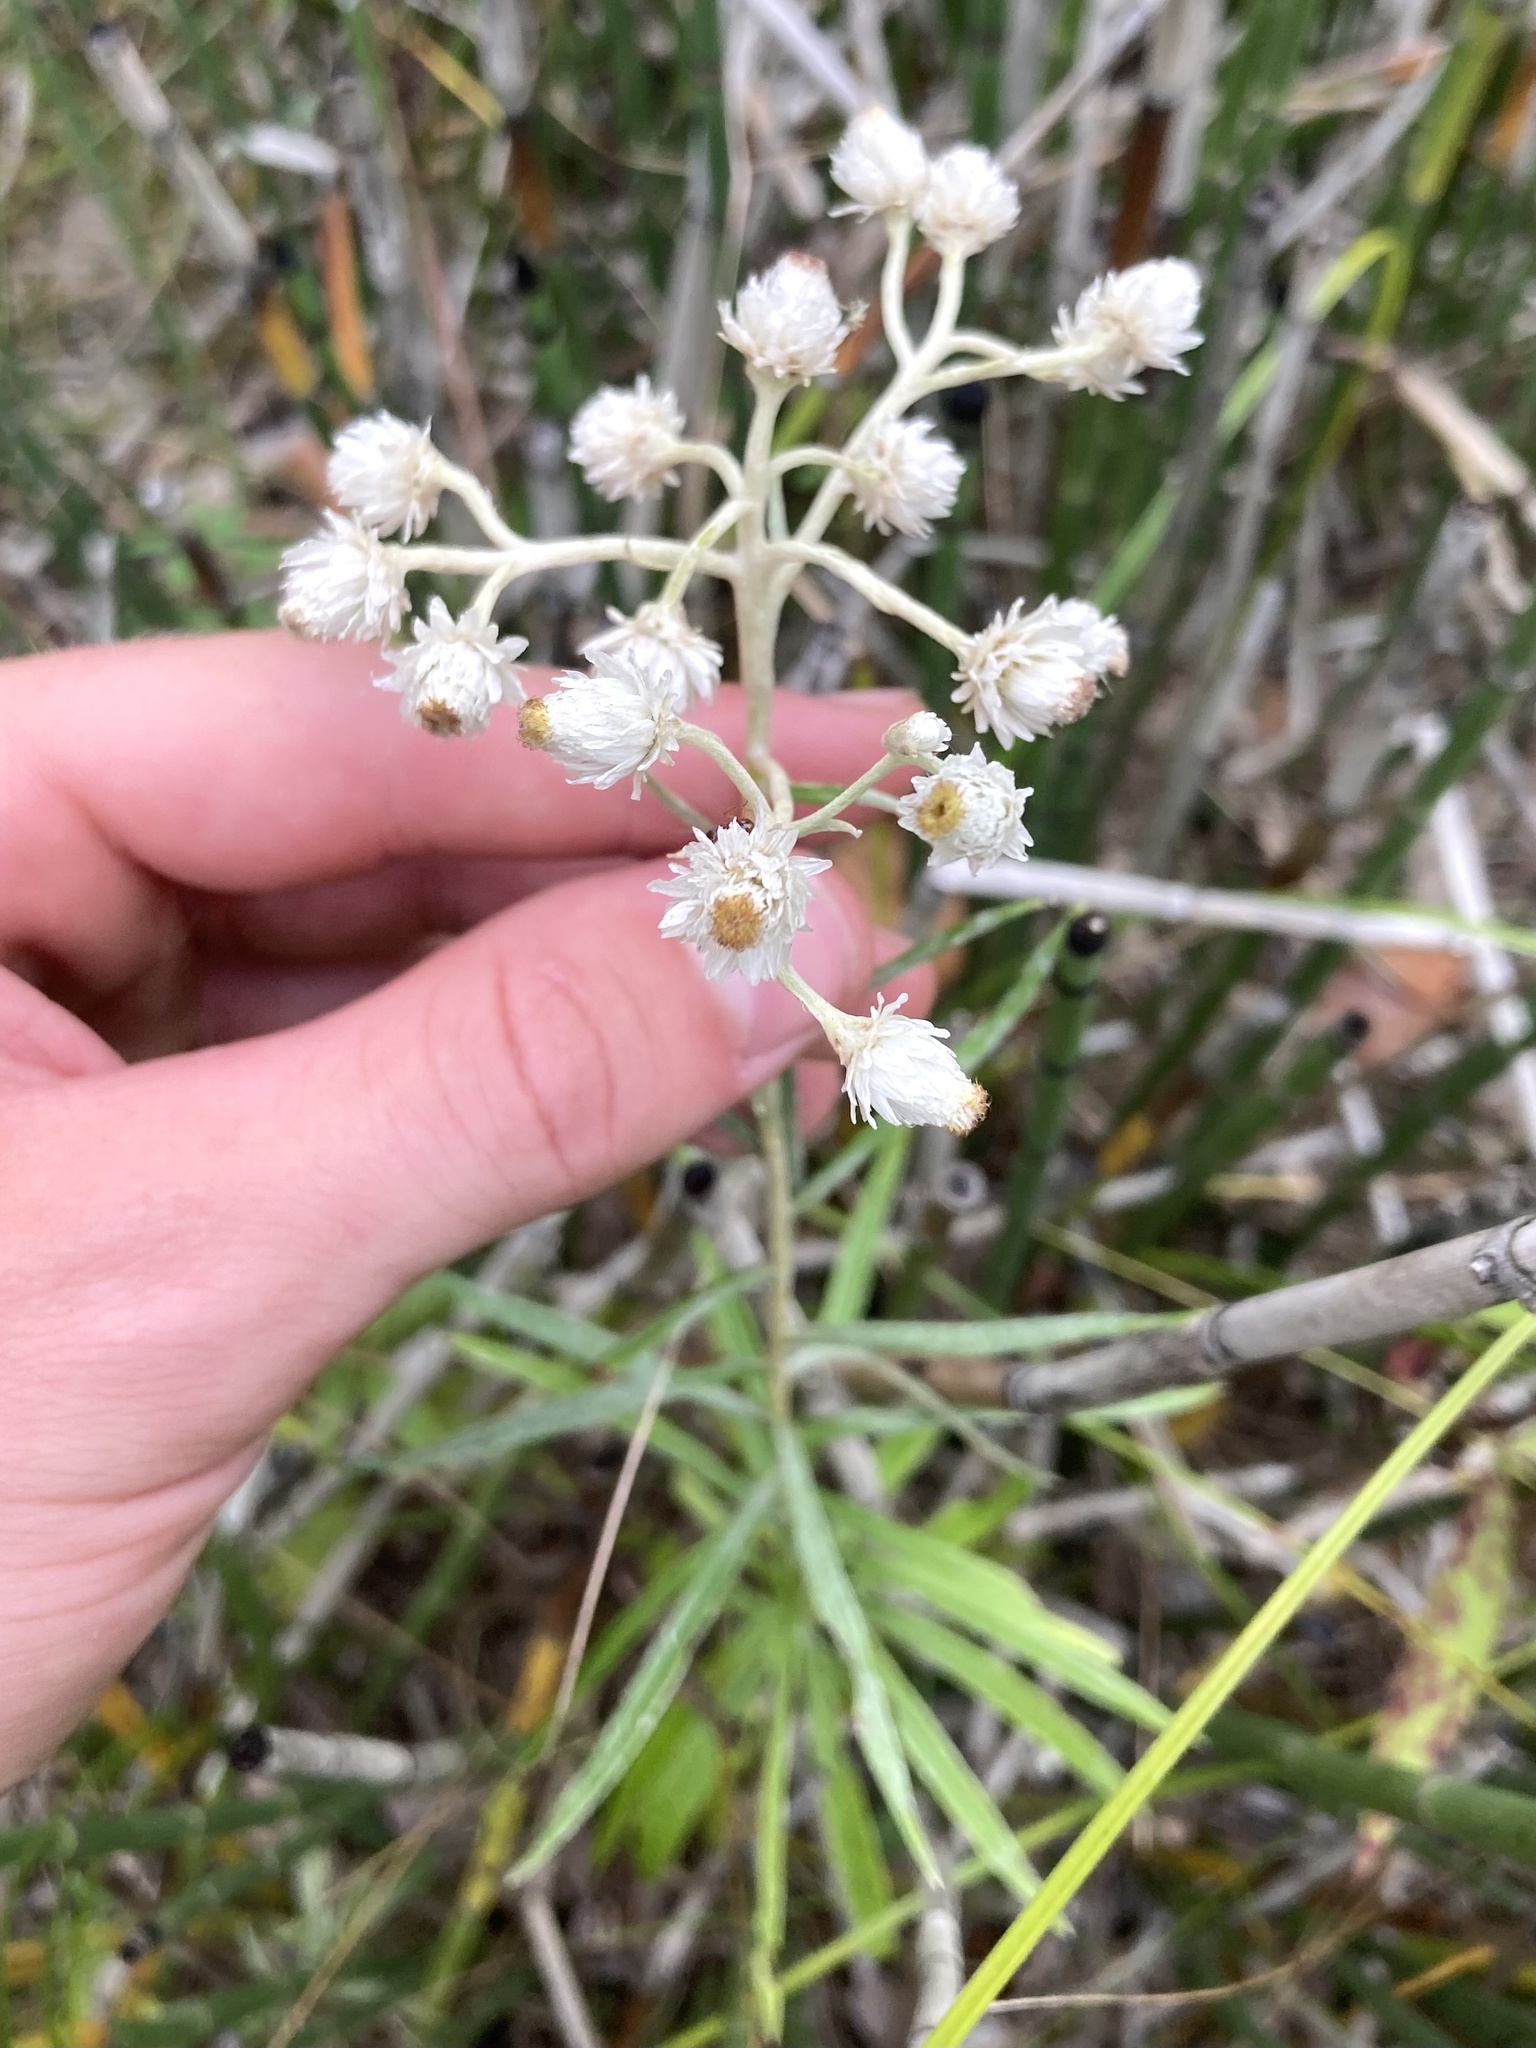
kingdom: Plantae
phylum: Tracheophyta
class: Magnoliopsida
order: Asterales
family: Asteraceae
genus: Anaphalis
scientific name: Anaphalis margaritacea
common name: Pearly everlasting
